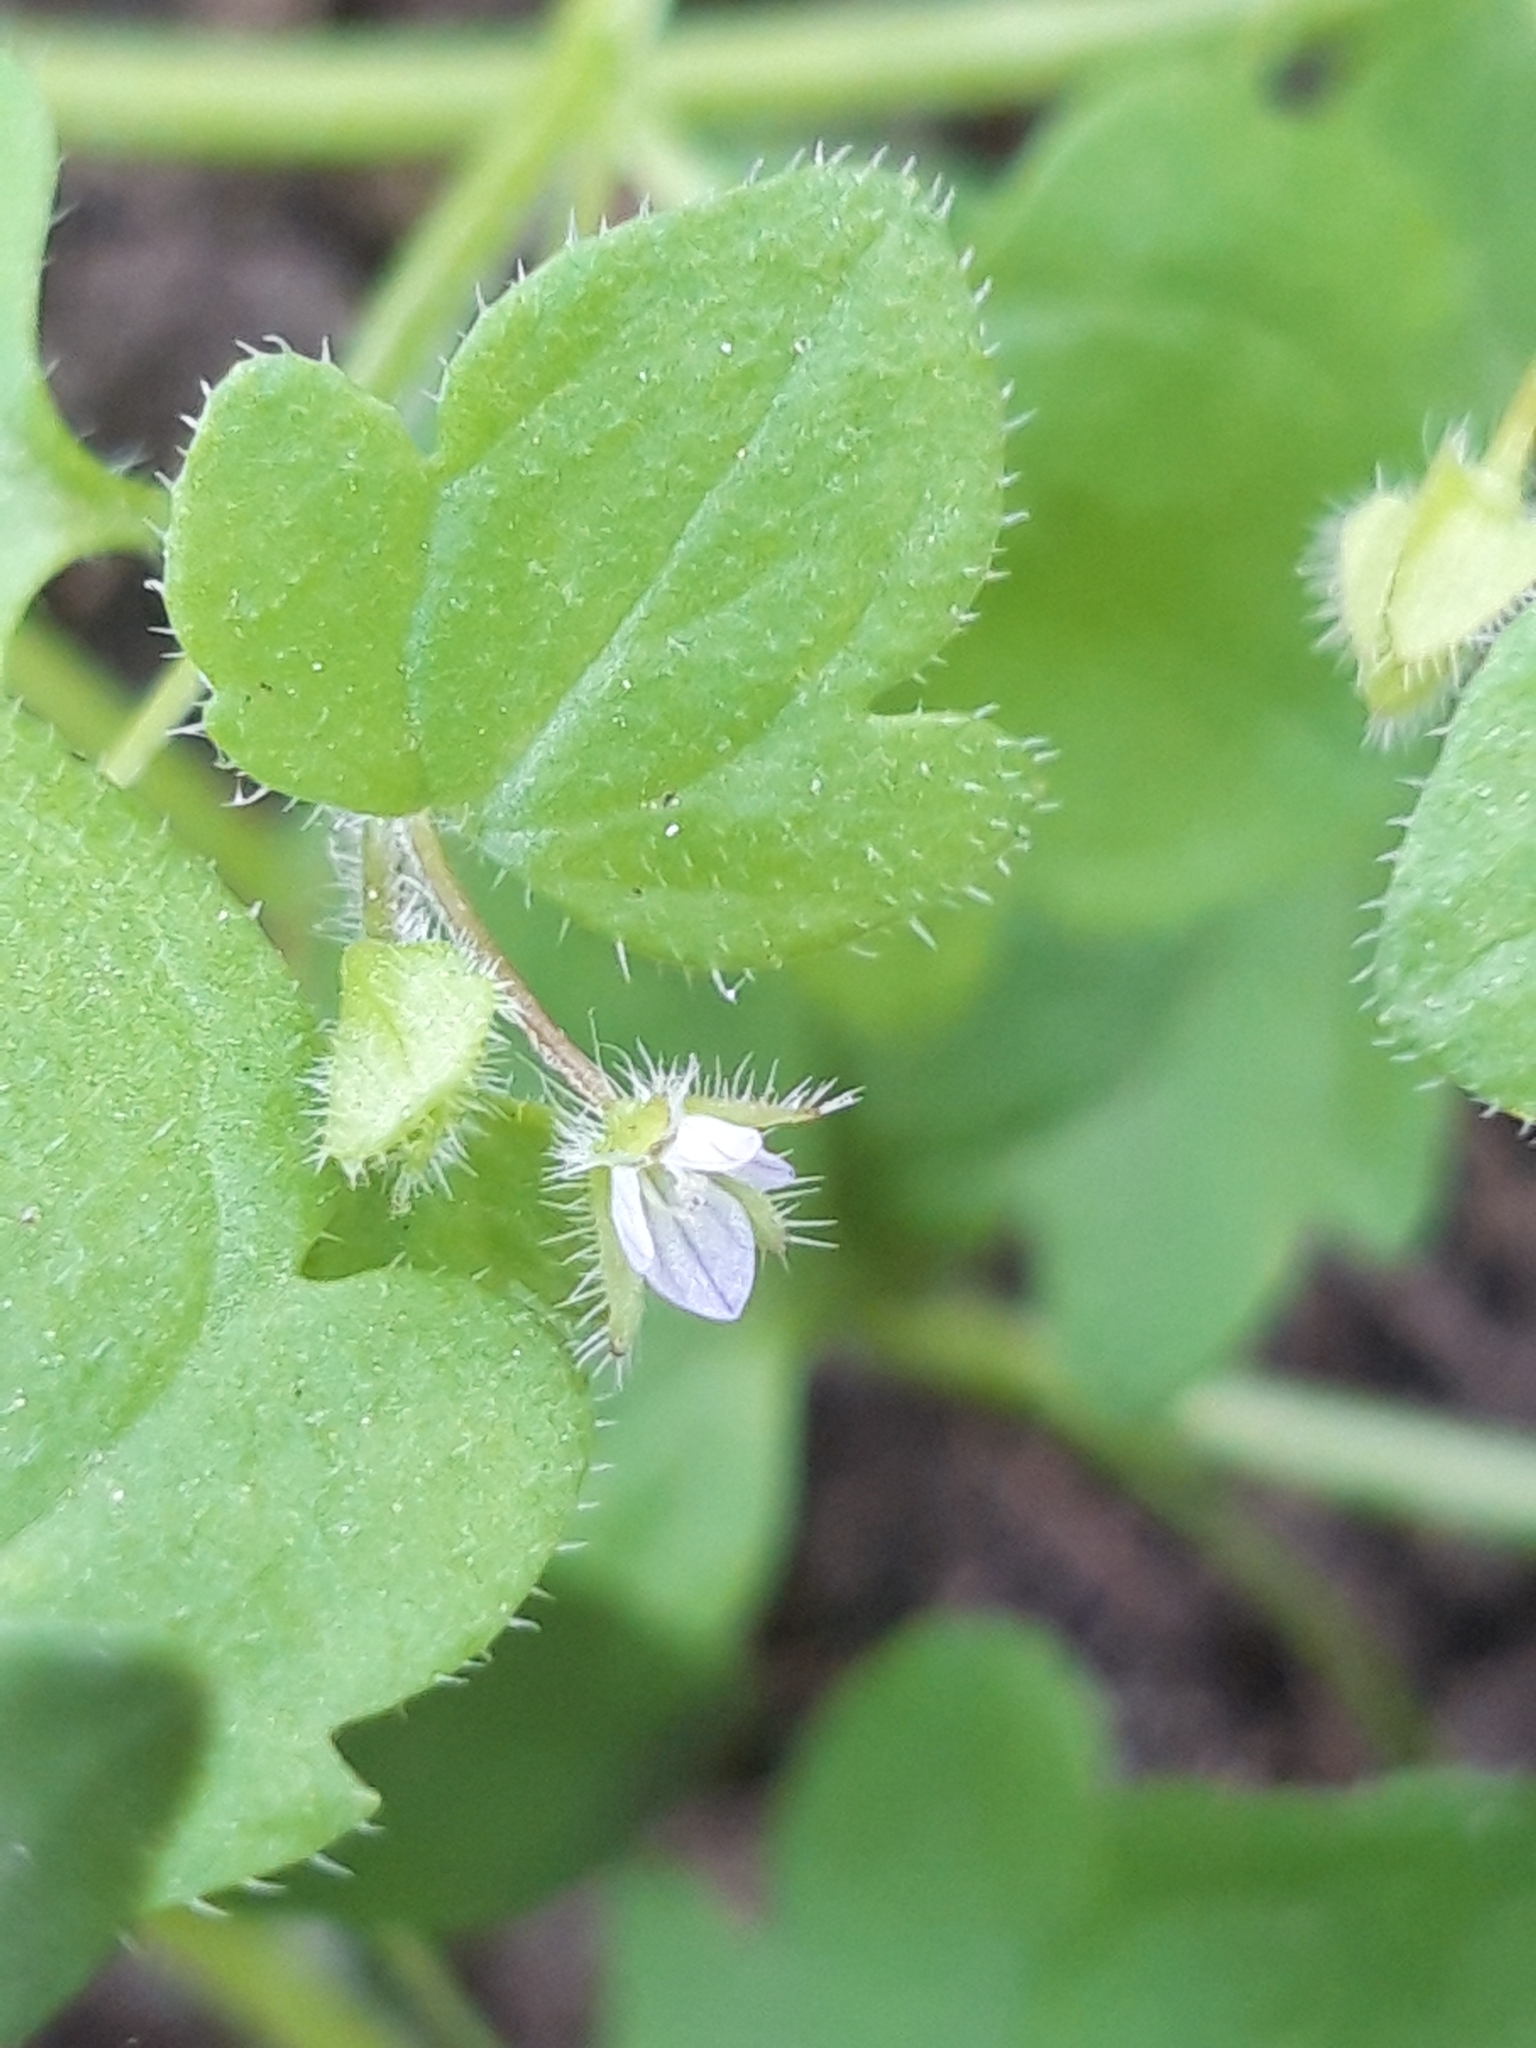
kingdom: Plantae
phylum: Tracheophyta
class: Magnoliopsida
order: Lamiales
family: Plantaginaceae
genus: Veronica
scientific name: Veronica sublobata
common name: False ivy-leaved speedwell
